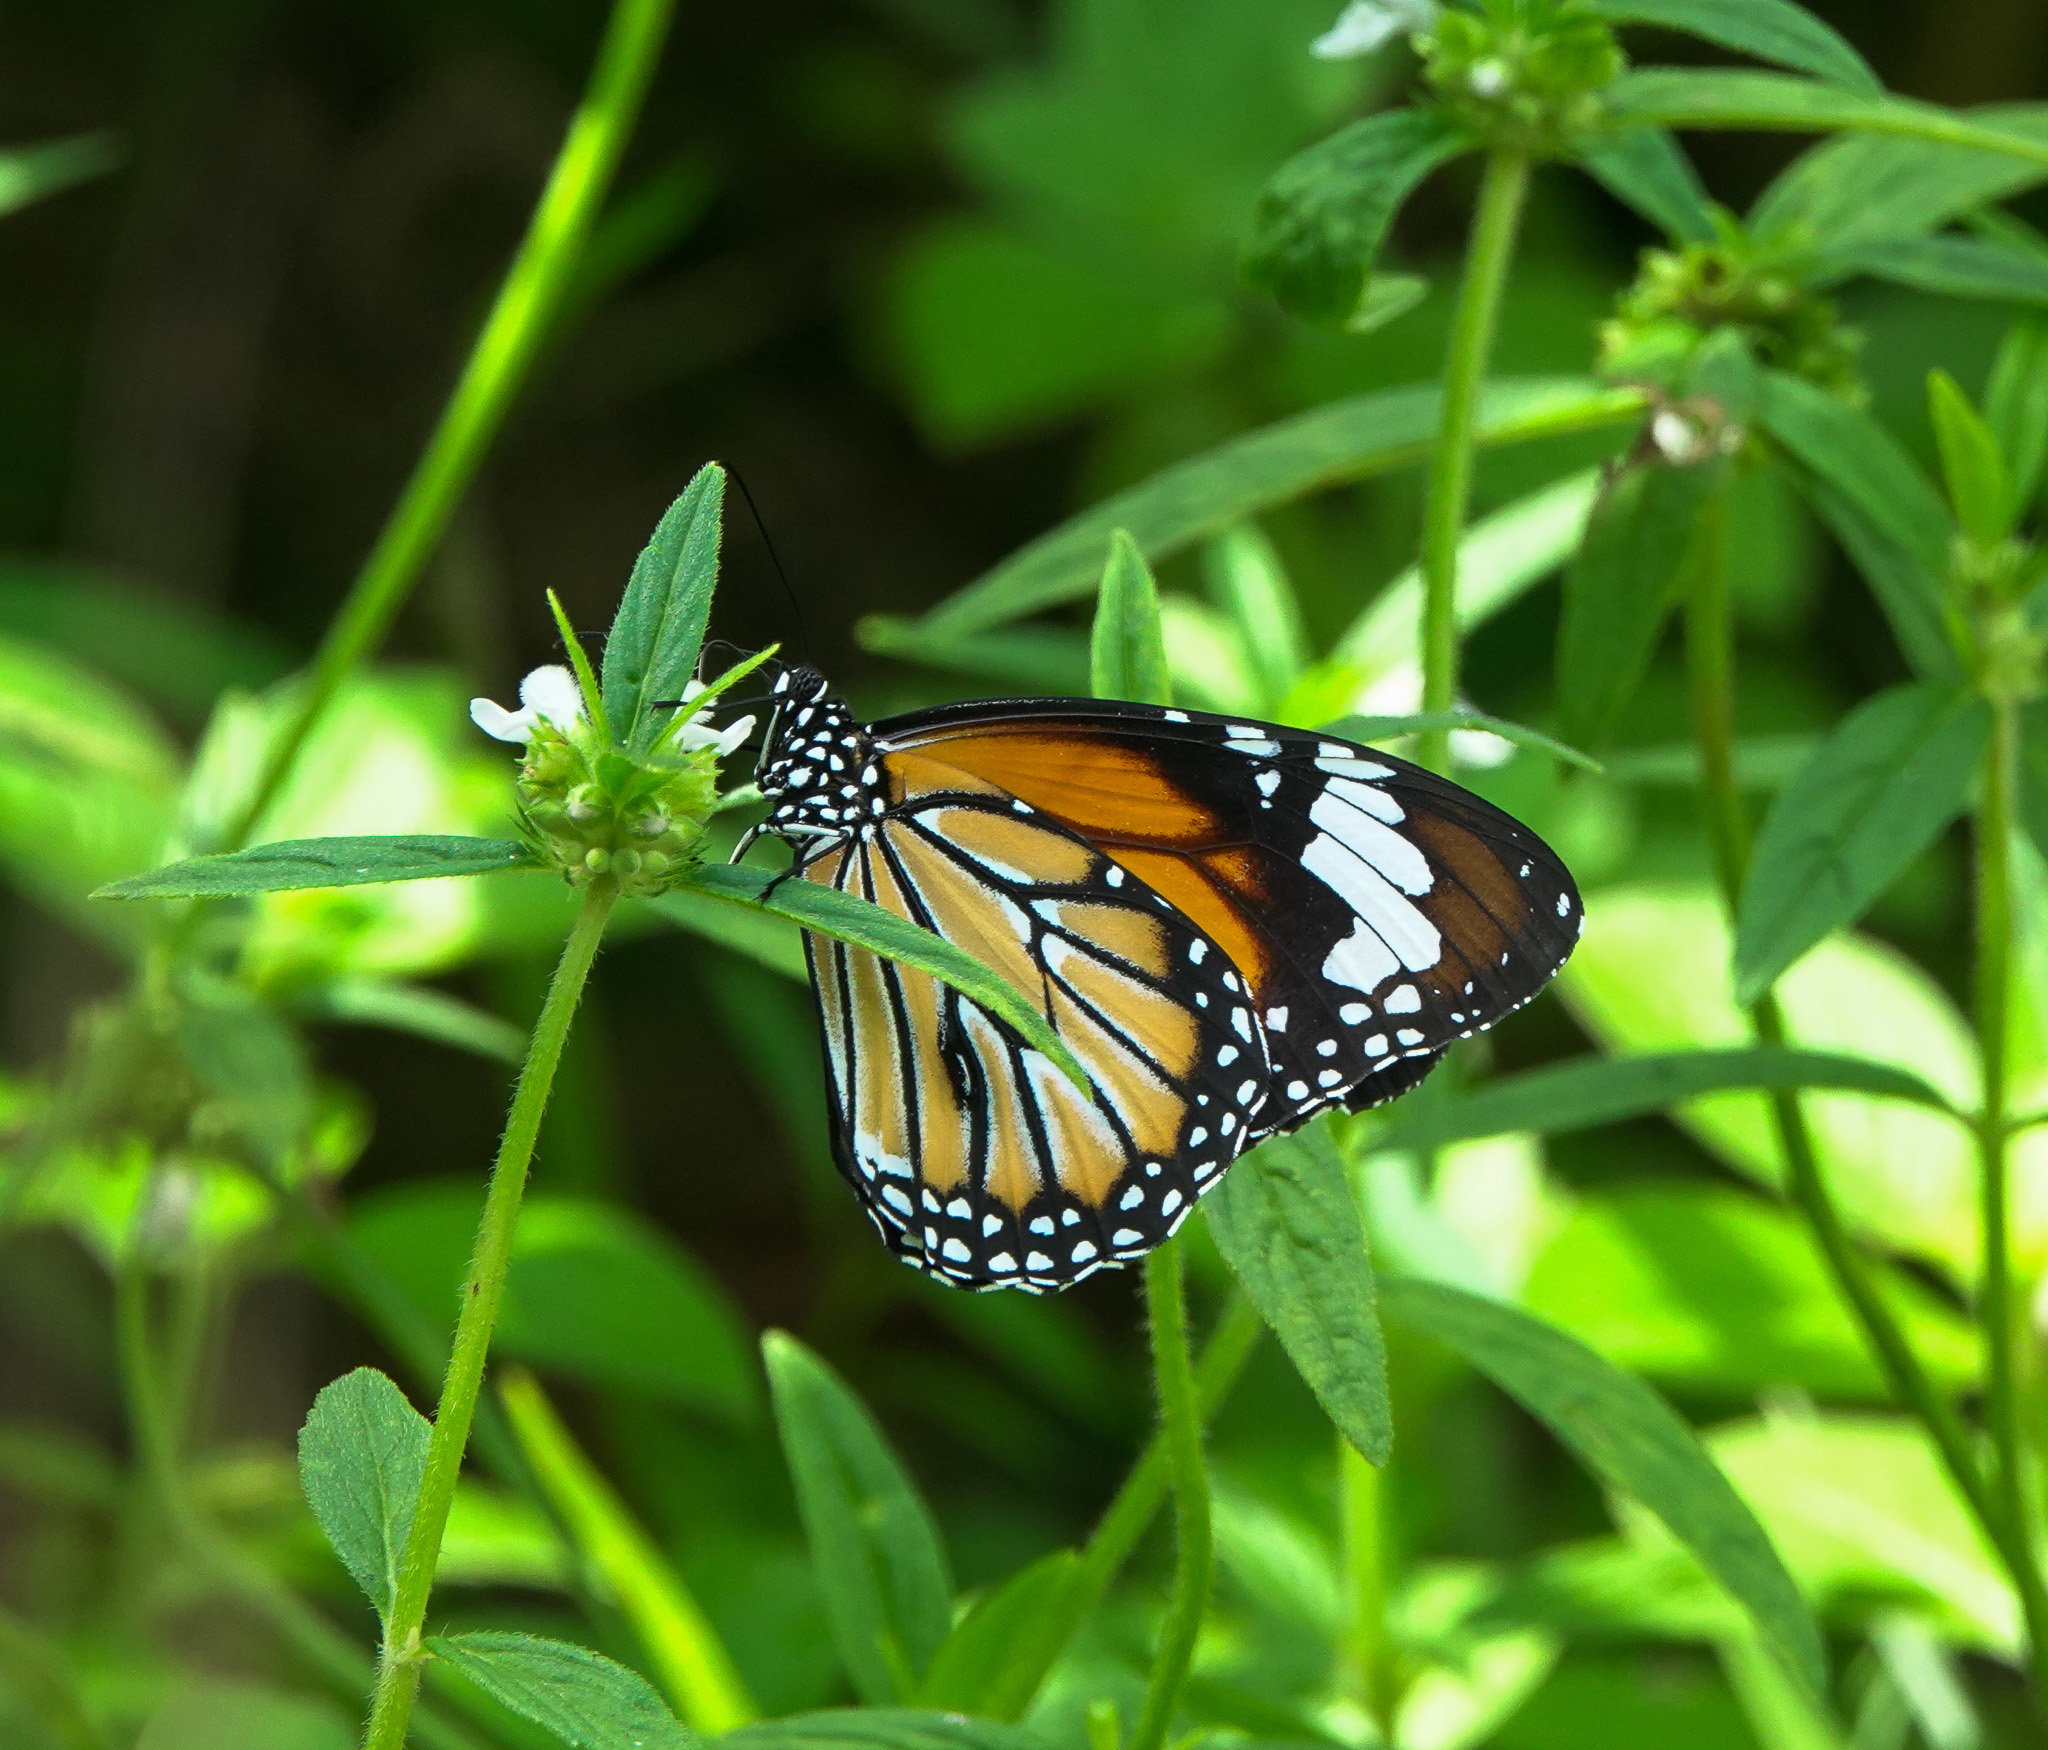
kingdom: Animalia
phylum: Arthropoda
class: Insecta
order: Lepidoptera
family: Nymphalidae
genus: Danaus
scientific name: Danaus genutia
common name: Common tiger butterfly
